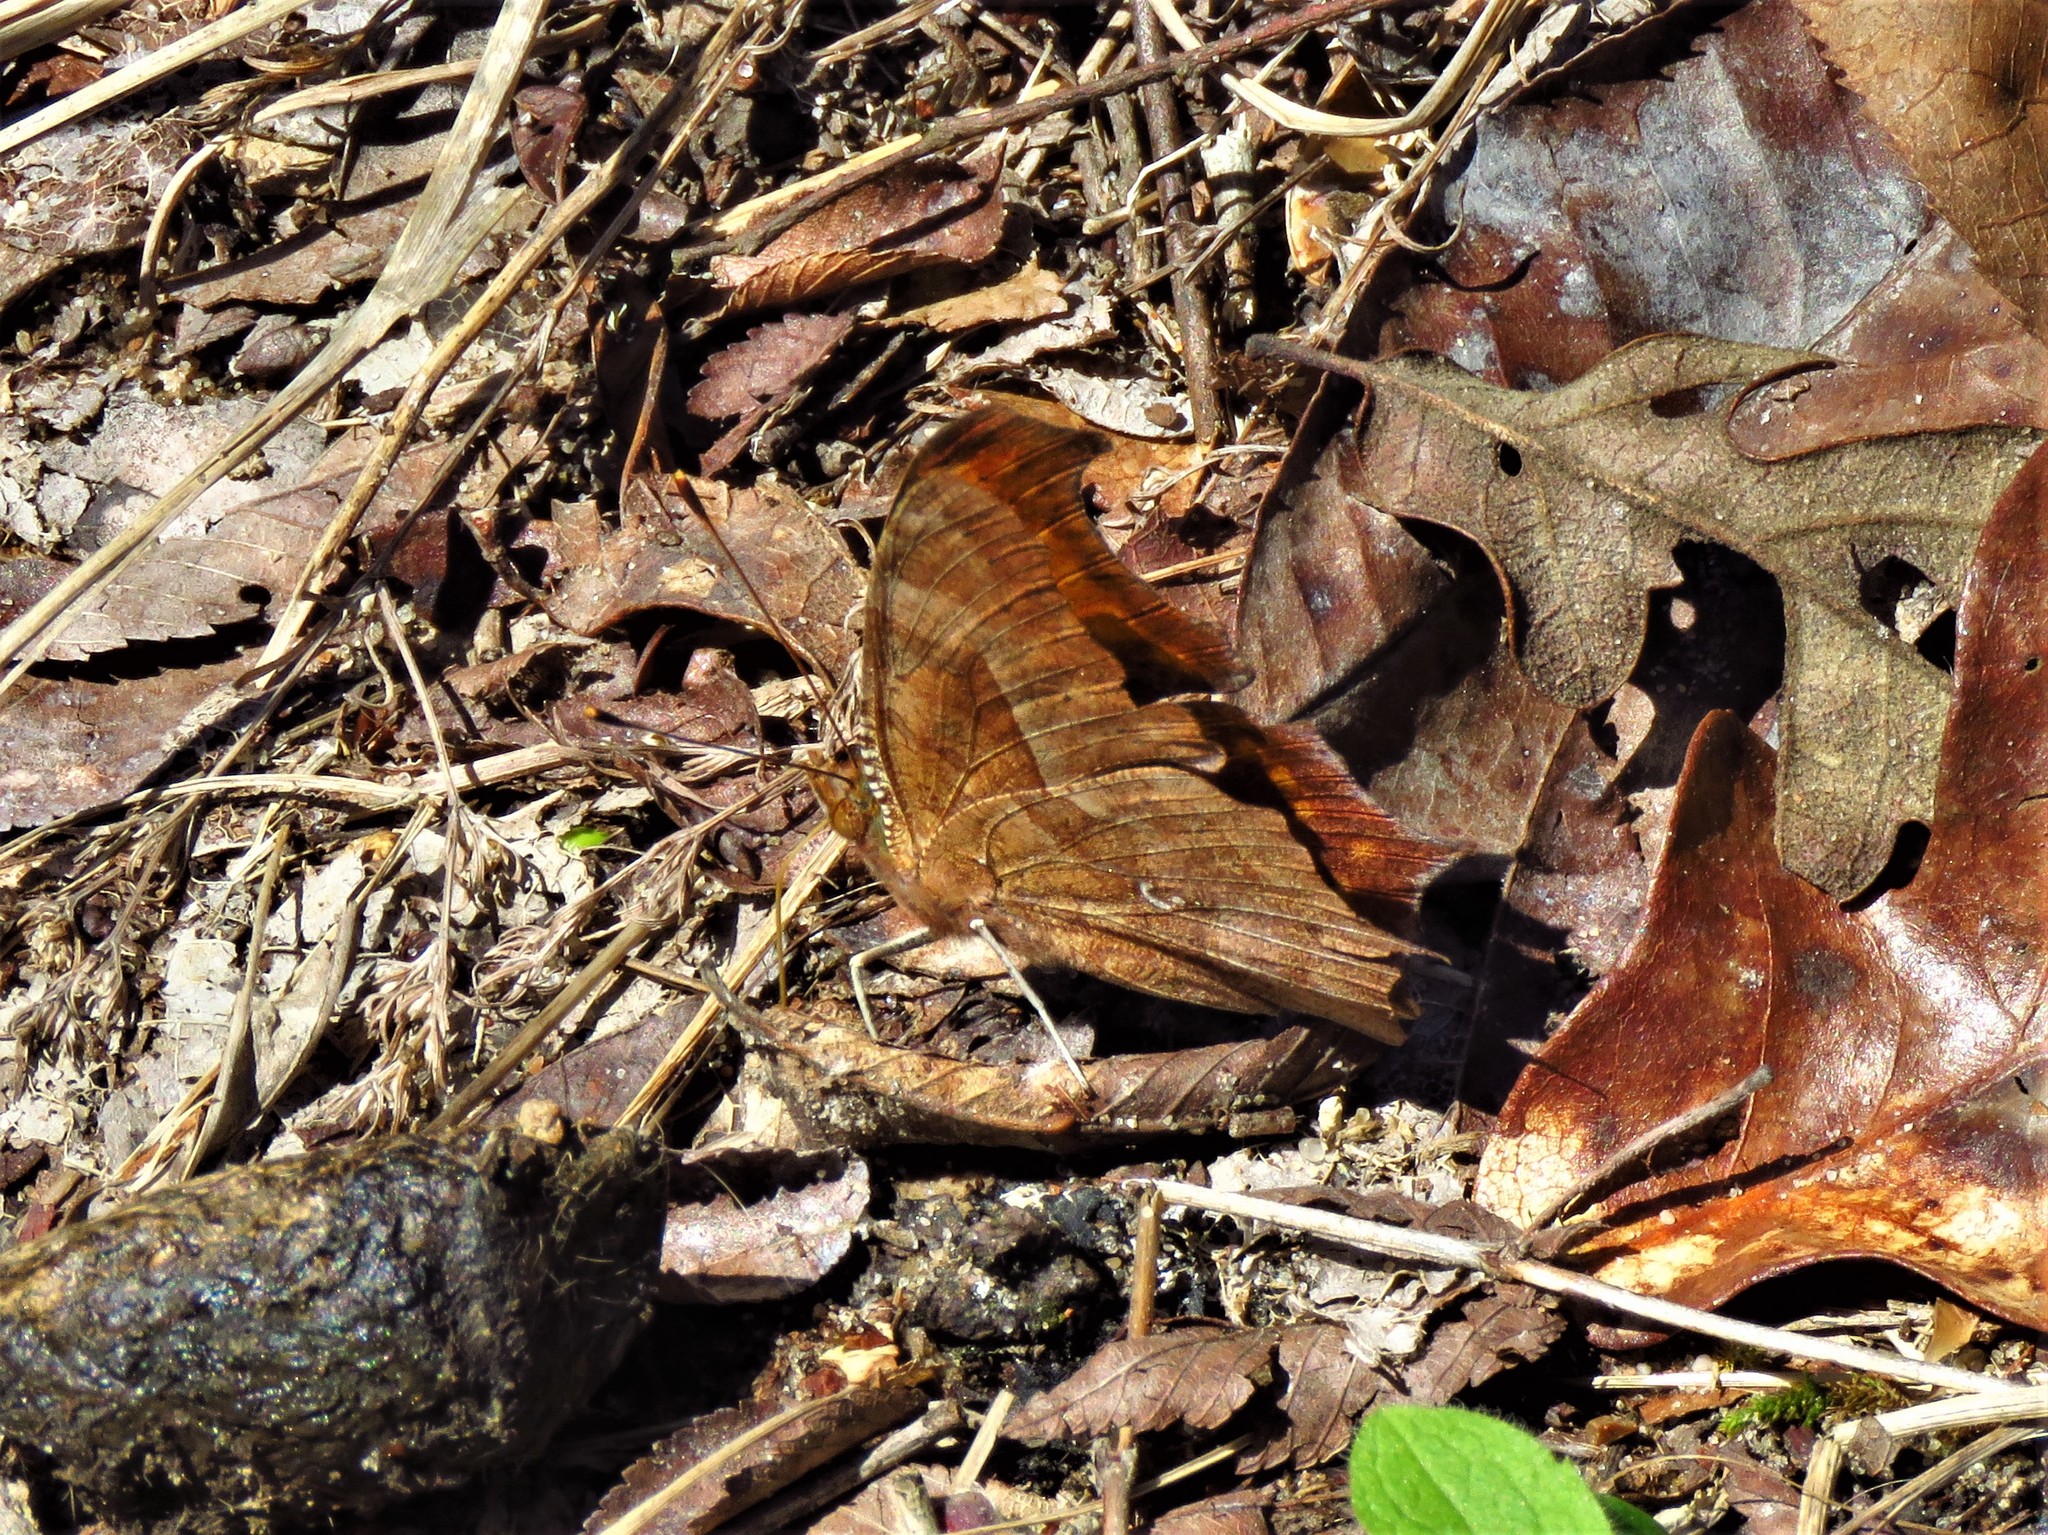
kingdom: Animalia
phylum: Arthropoda
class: Insecta
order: Lepidoptera
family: Nymphalidae
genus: Polygonia
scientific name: Polygonia interrogationis
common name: Question mark
